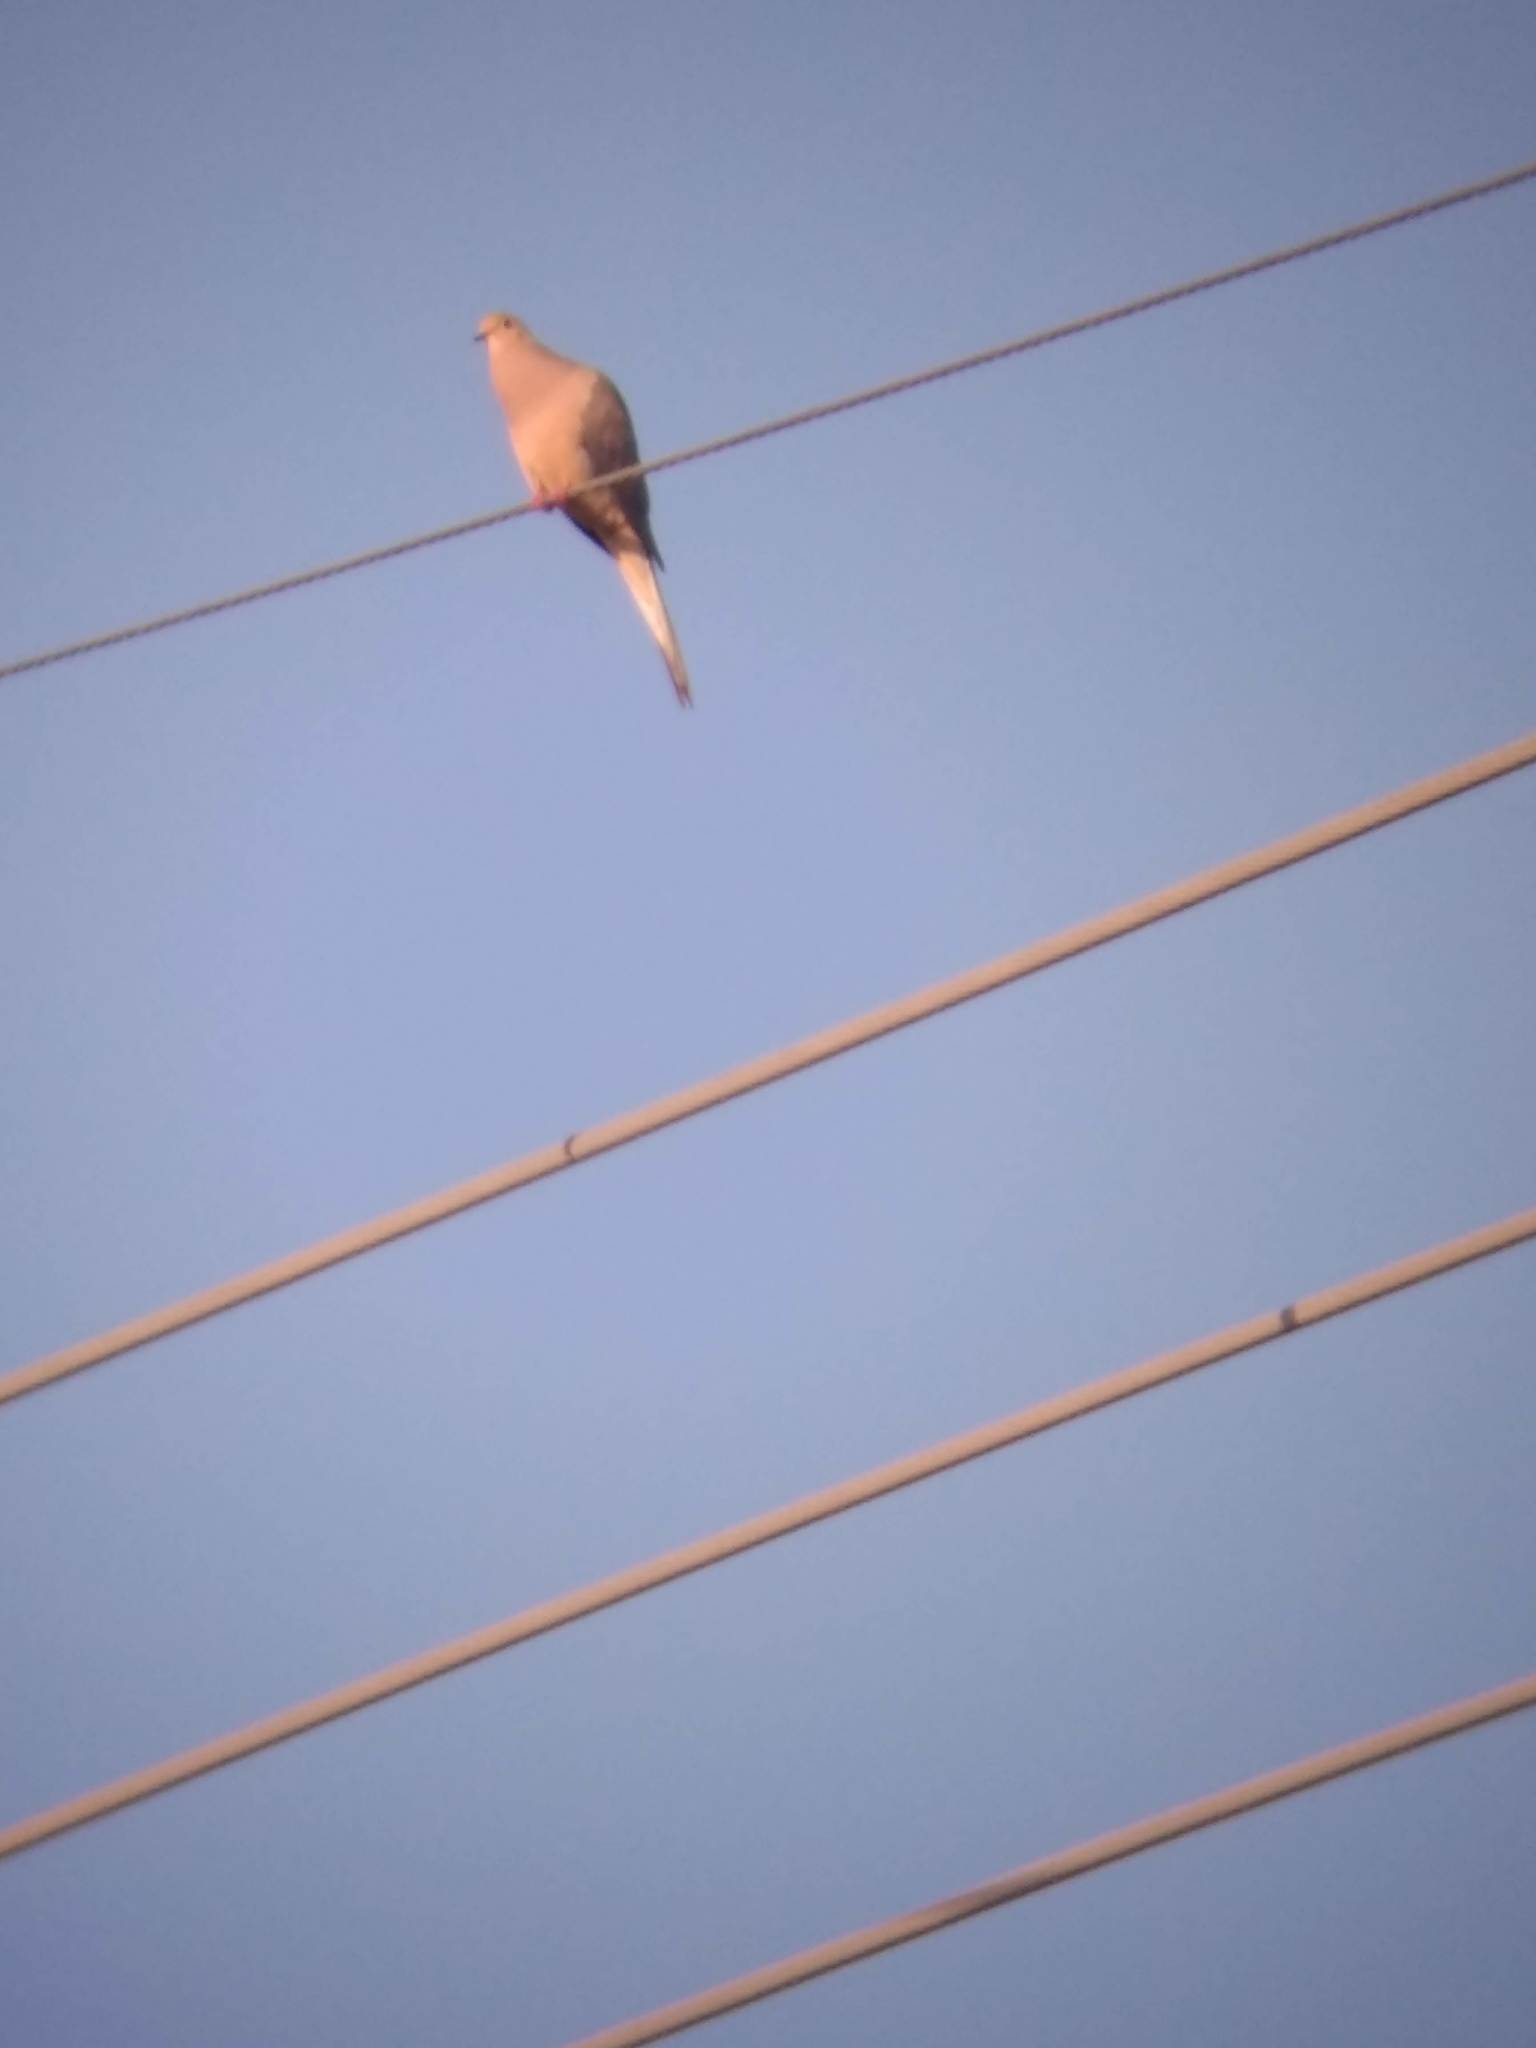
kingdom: Animalia
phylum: Chordata
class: Aves
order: Columbiformes
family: Columbidae
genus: Zenaida
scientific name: Zenaida macroura
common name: Mourning dove
